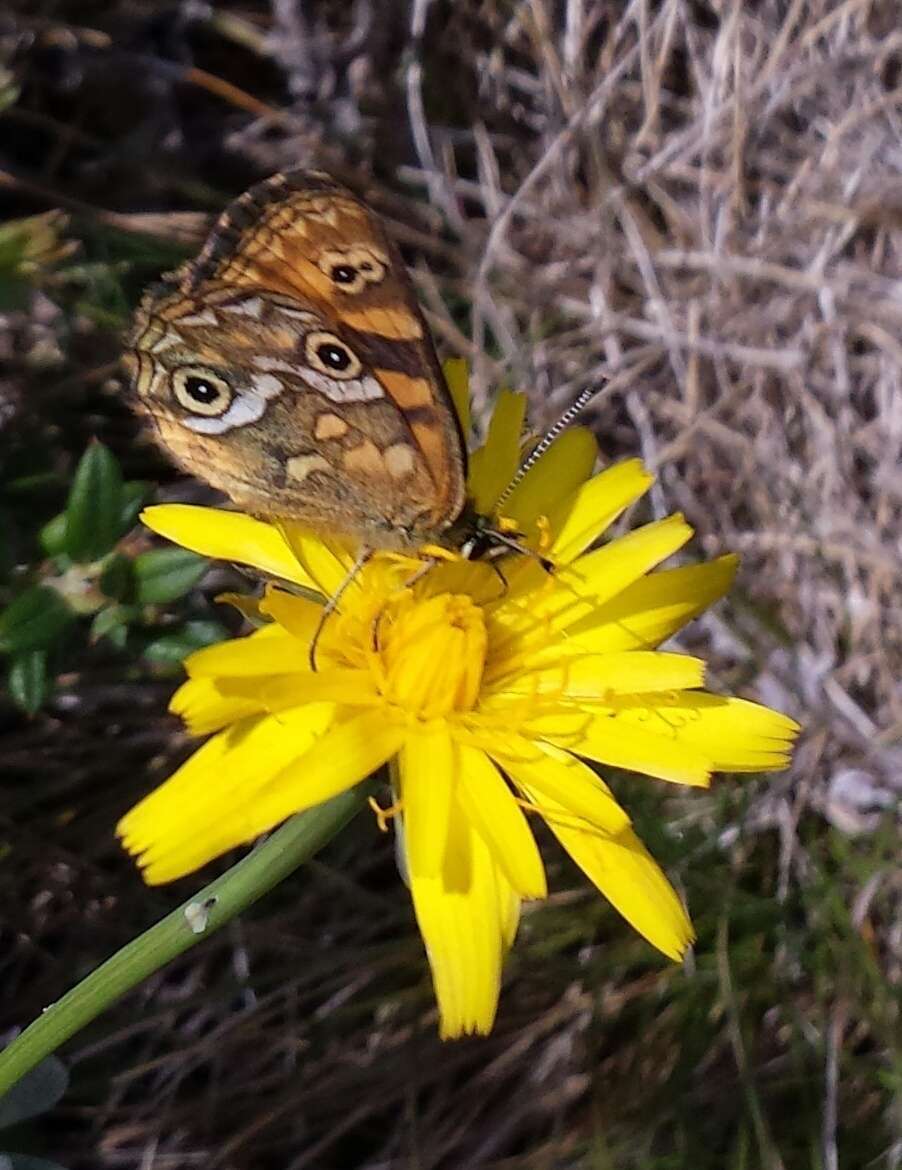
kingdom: Animalia
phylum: Arthropoda
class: Insecta
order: Lepidoptera
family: Nymphalidae
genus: Oreixenica
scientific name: Oreixenica correae
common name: Correa brown
